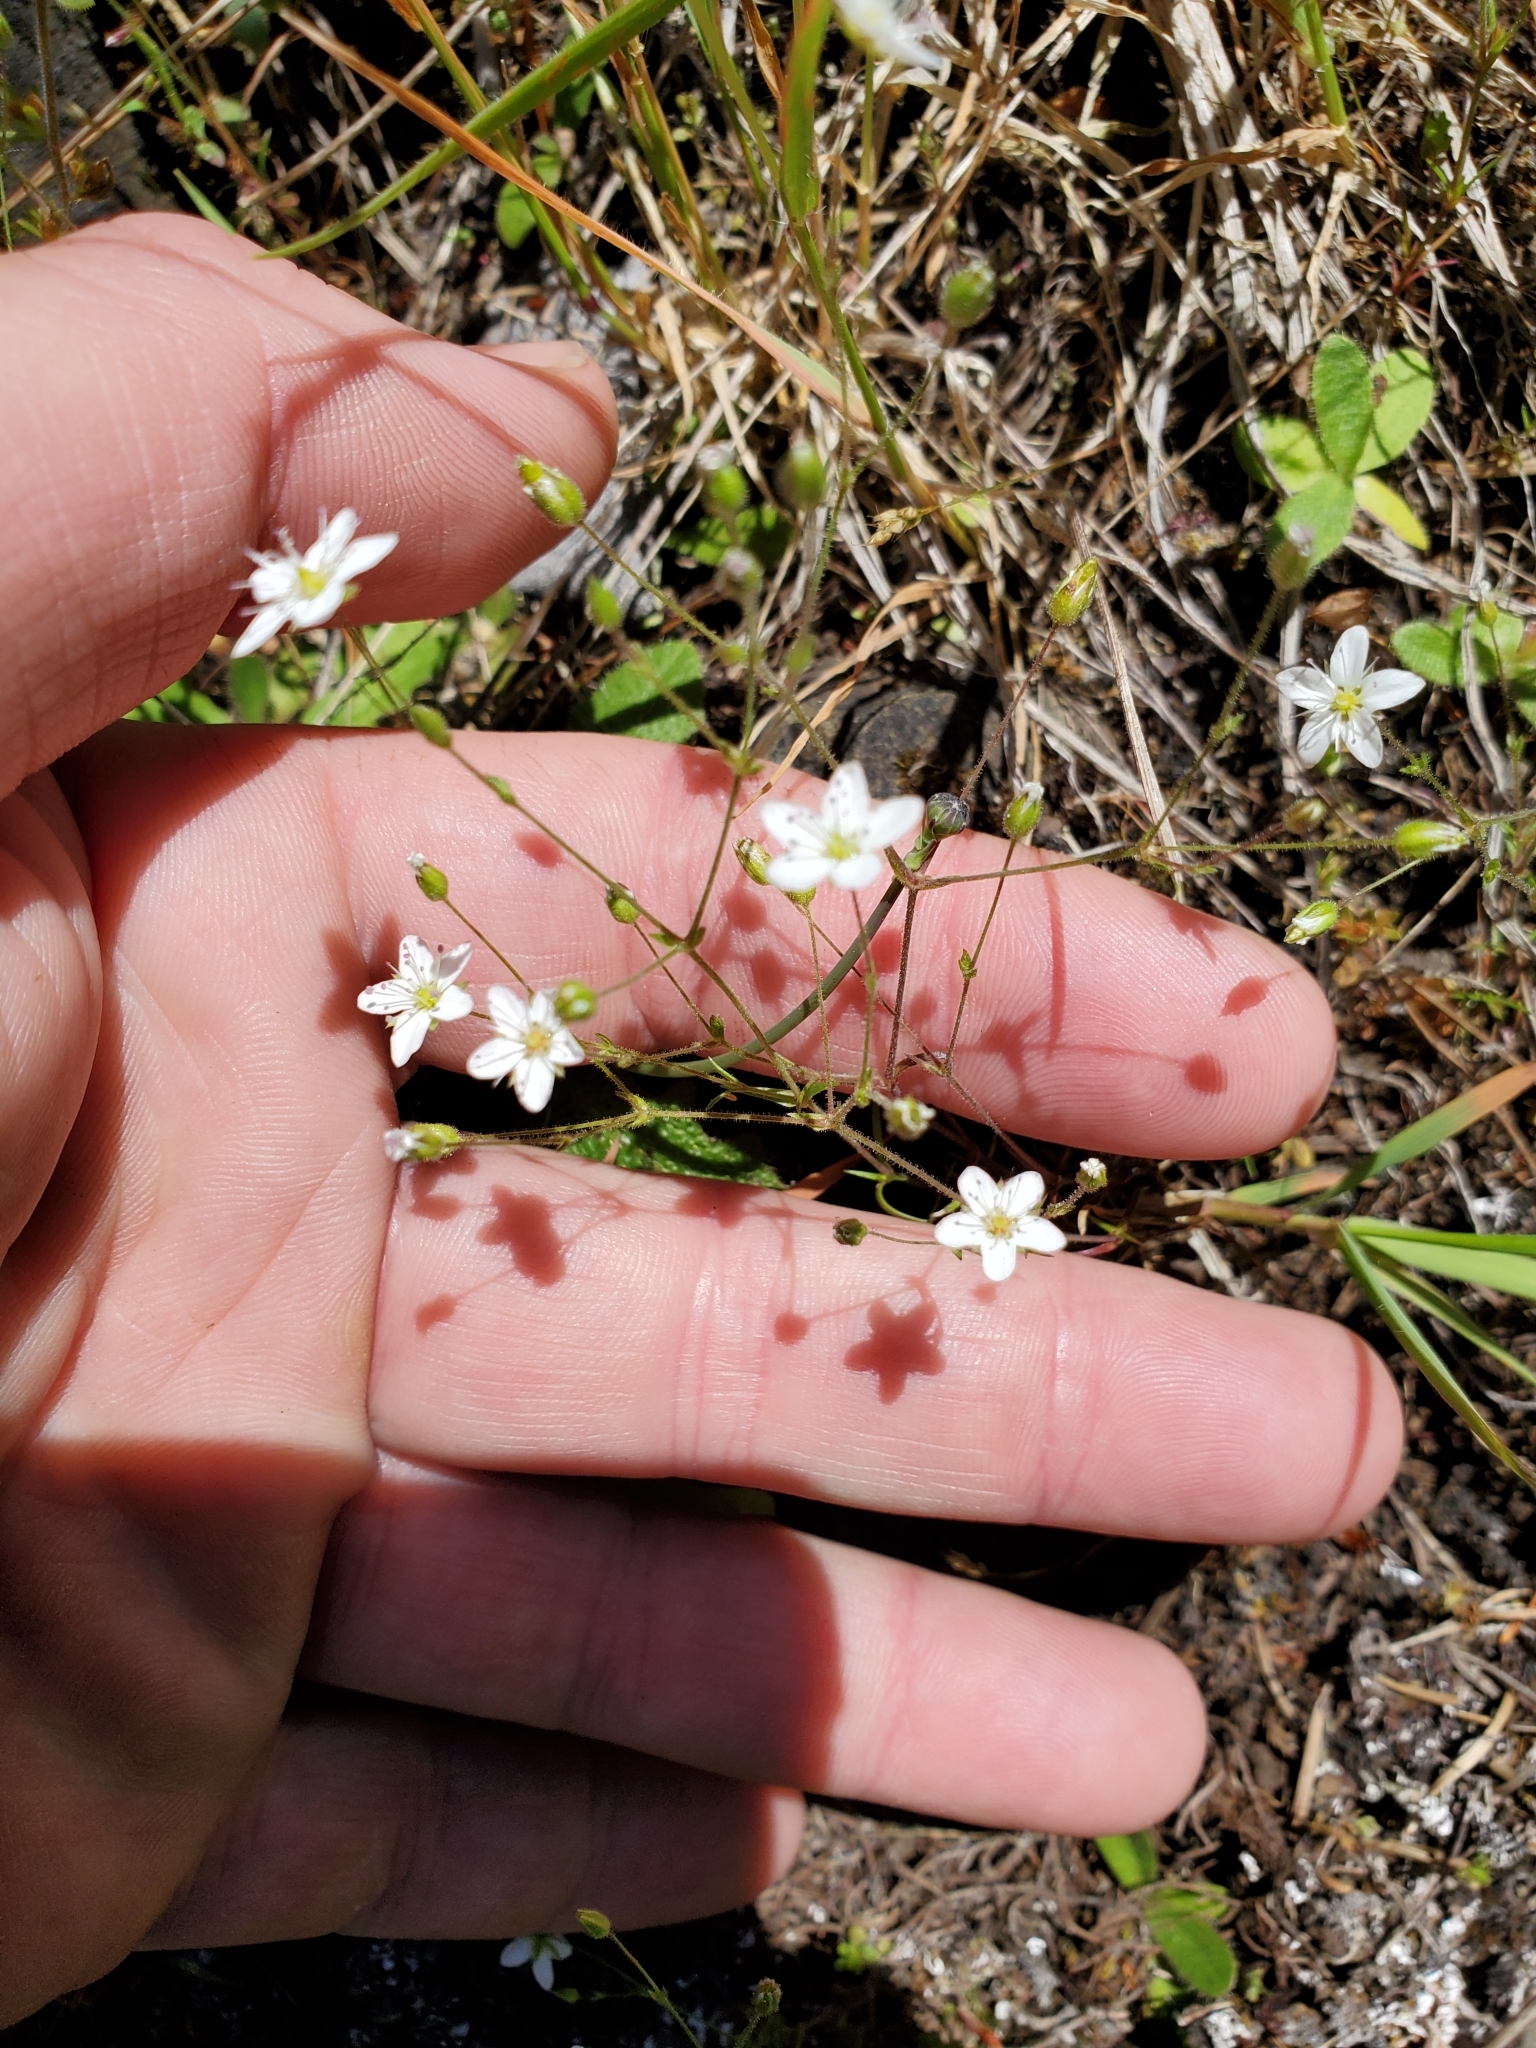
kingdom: Plantae
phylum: Tracheophyta
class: Magnoliopsida
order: Caryophyllales
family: Caryophyllaceae
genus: Sabulina
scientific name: Sabulina macra
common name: Slender sandwort
